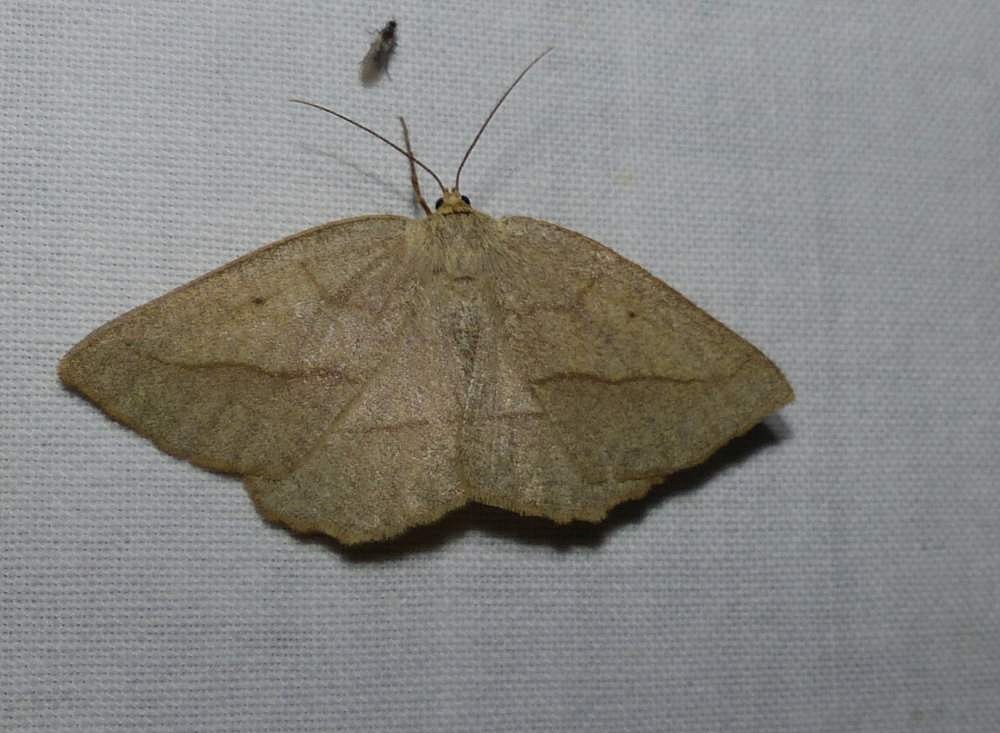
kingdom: Animalia
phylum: Arthropoda
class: Insecta
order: Lepidoptera
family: Geometridae
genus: Eusarca
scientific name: Eusarca confusaria
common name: Confused eusarca
